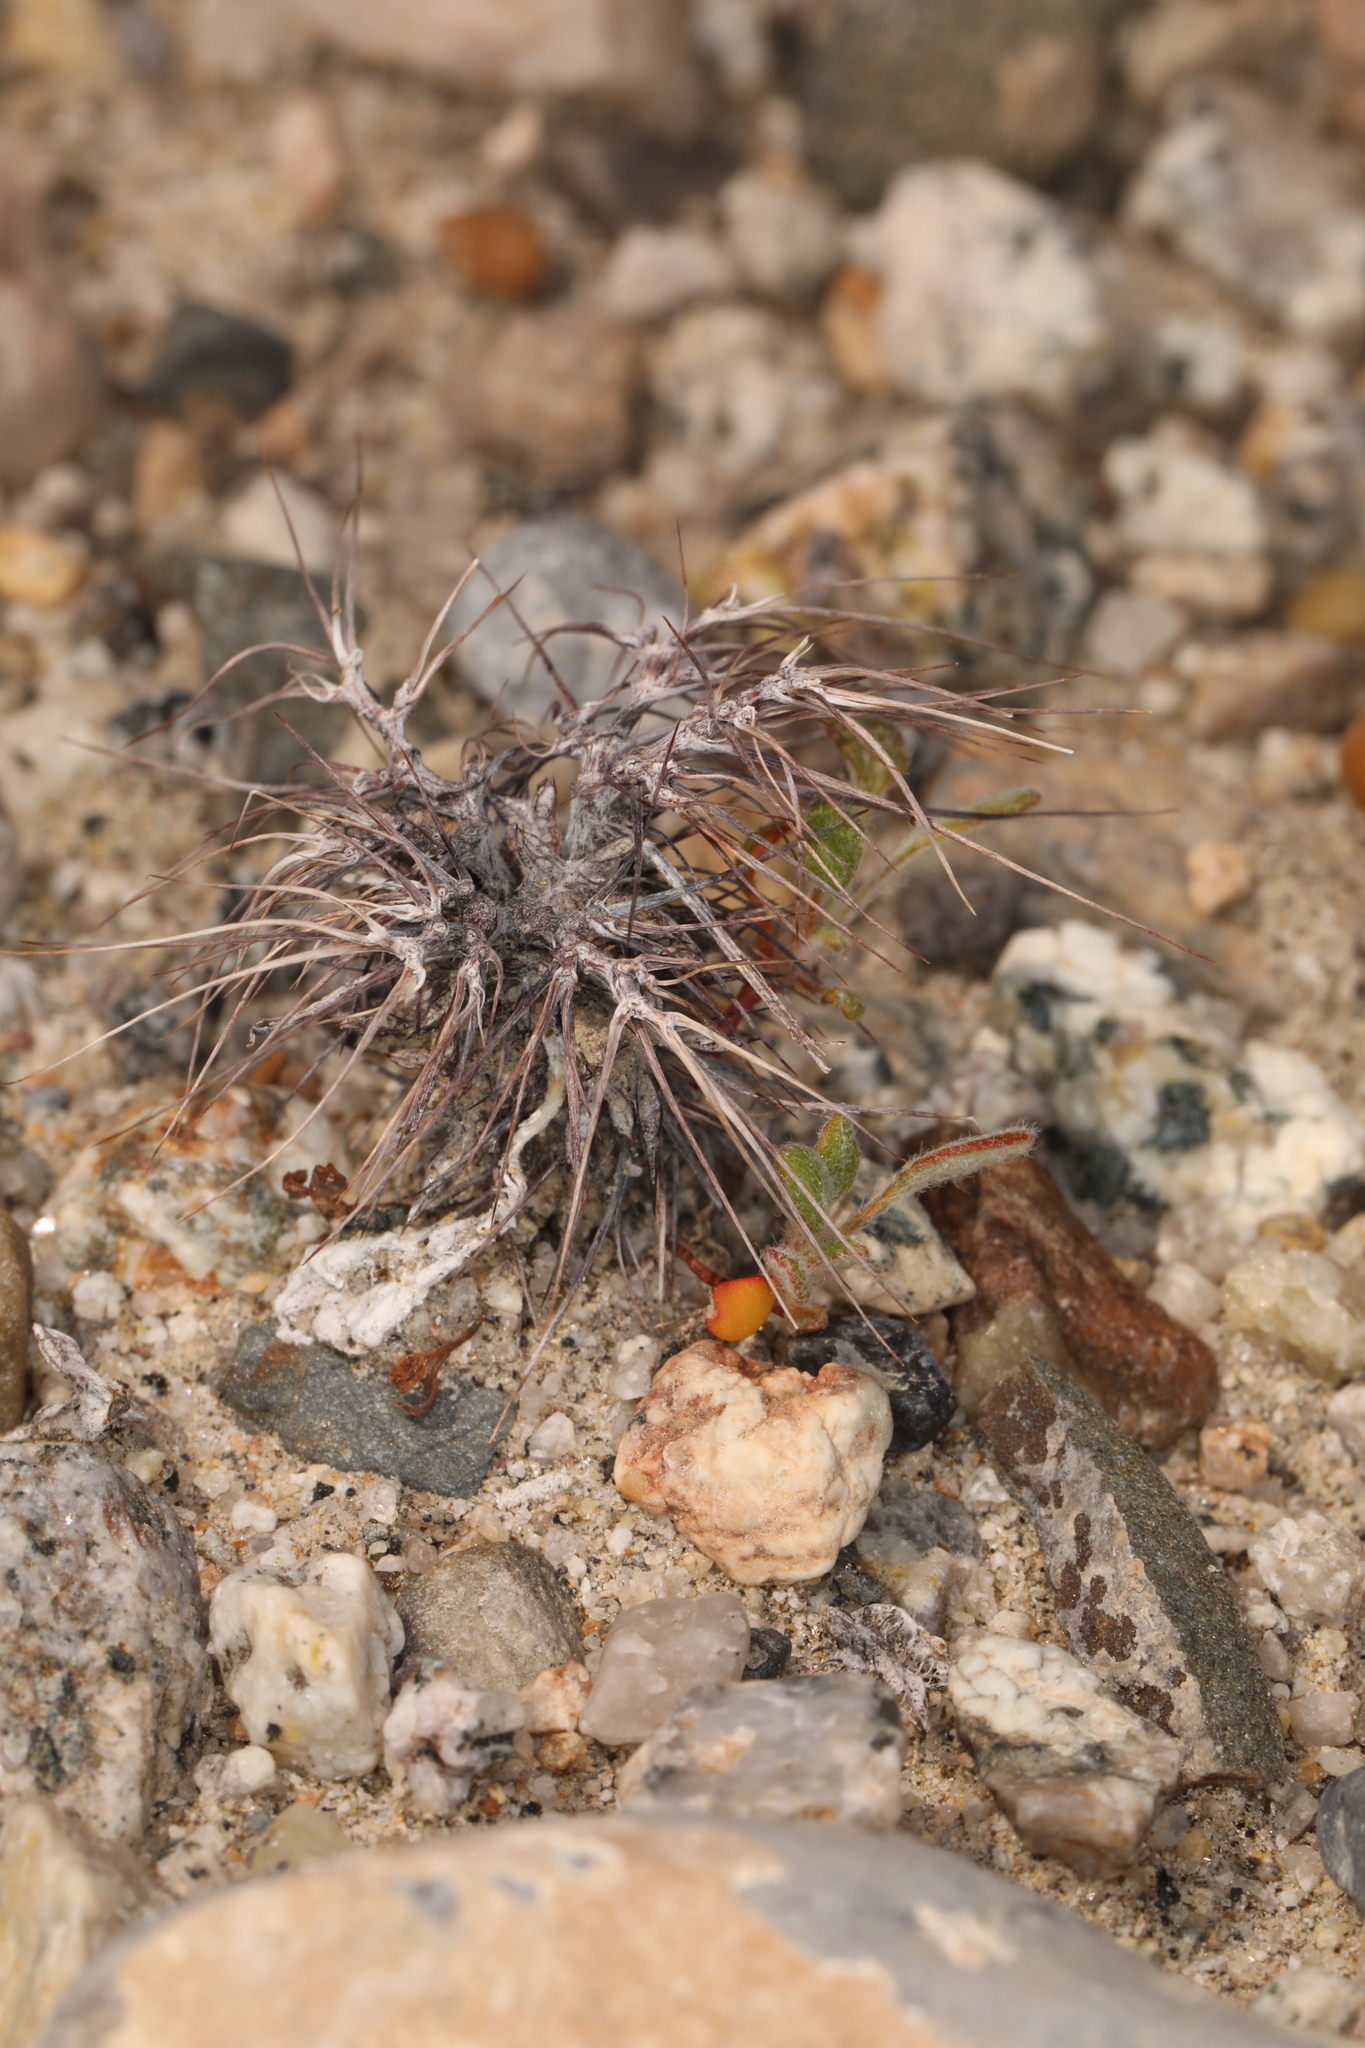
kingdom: Plantae
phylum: Tracheophyta
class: Magnoliopsida
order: Caryophyllales
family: Polygonaceae
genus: Chorizanthe
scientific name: Chorizanthe rigida
